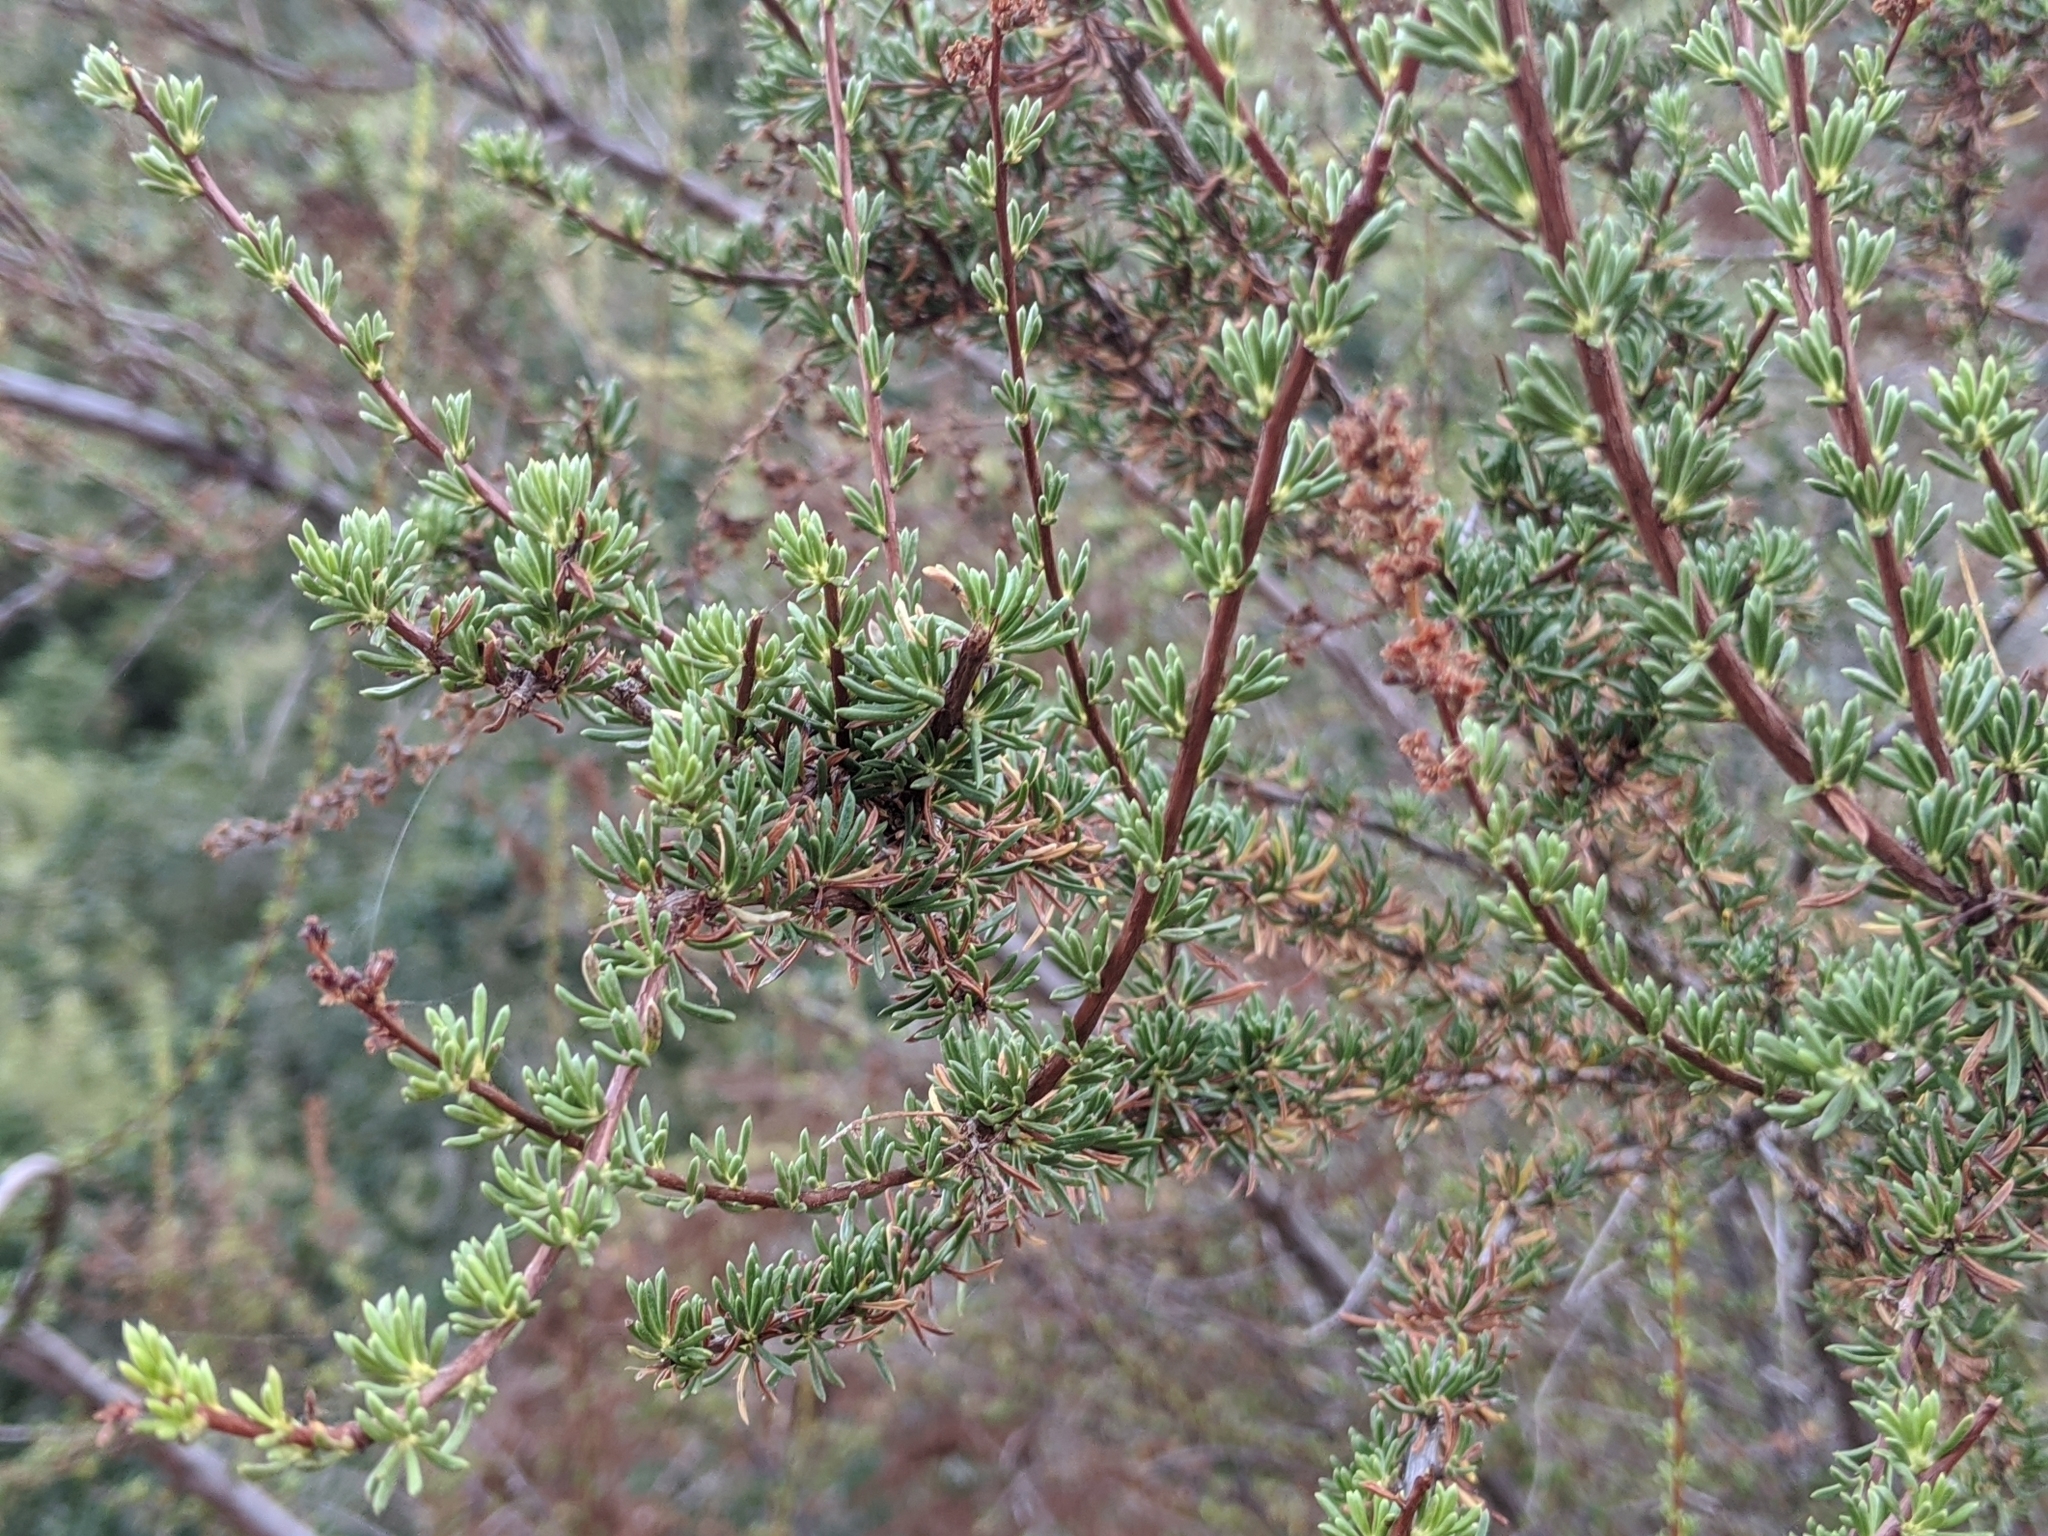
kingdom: Plantae
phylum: Tracheophyta
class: Magnoliopsida
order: Rosales
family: Rosaceae
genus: Adenostoma
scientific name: Adenostoma fasciculatum
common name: Chamise
